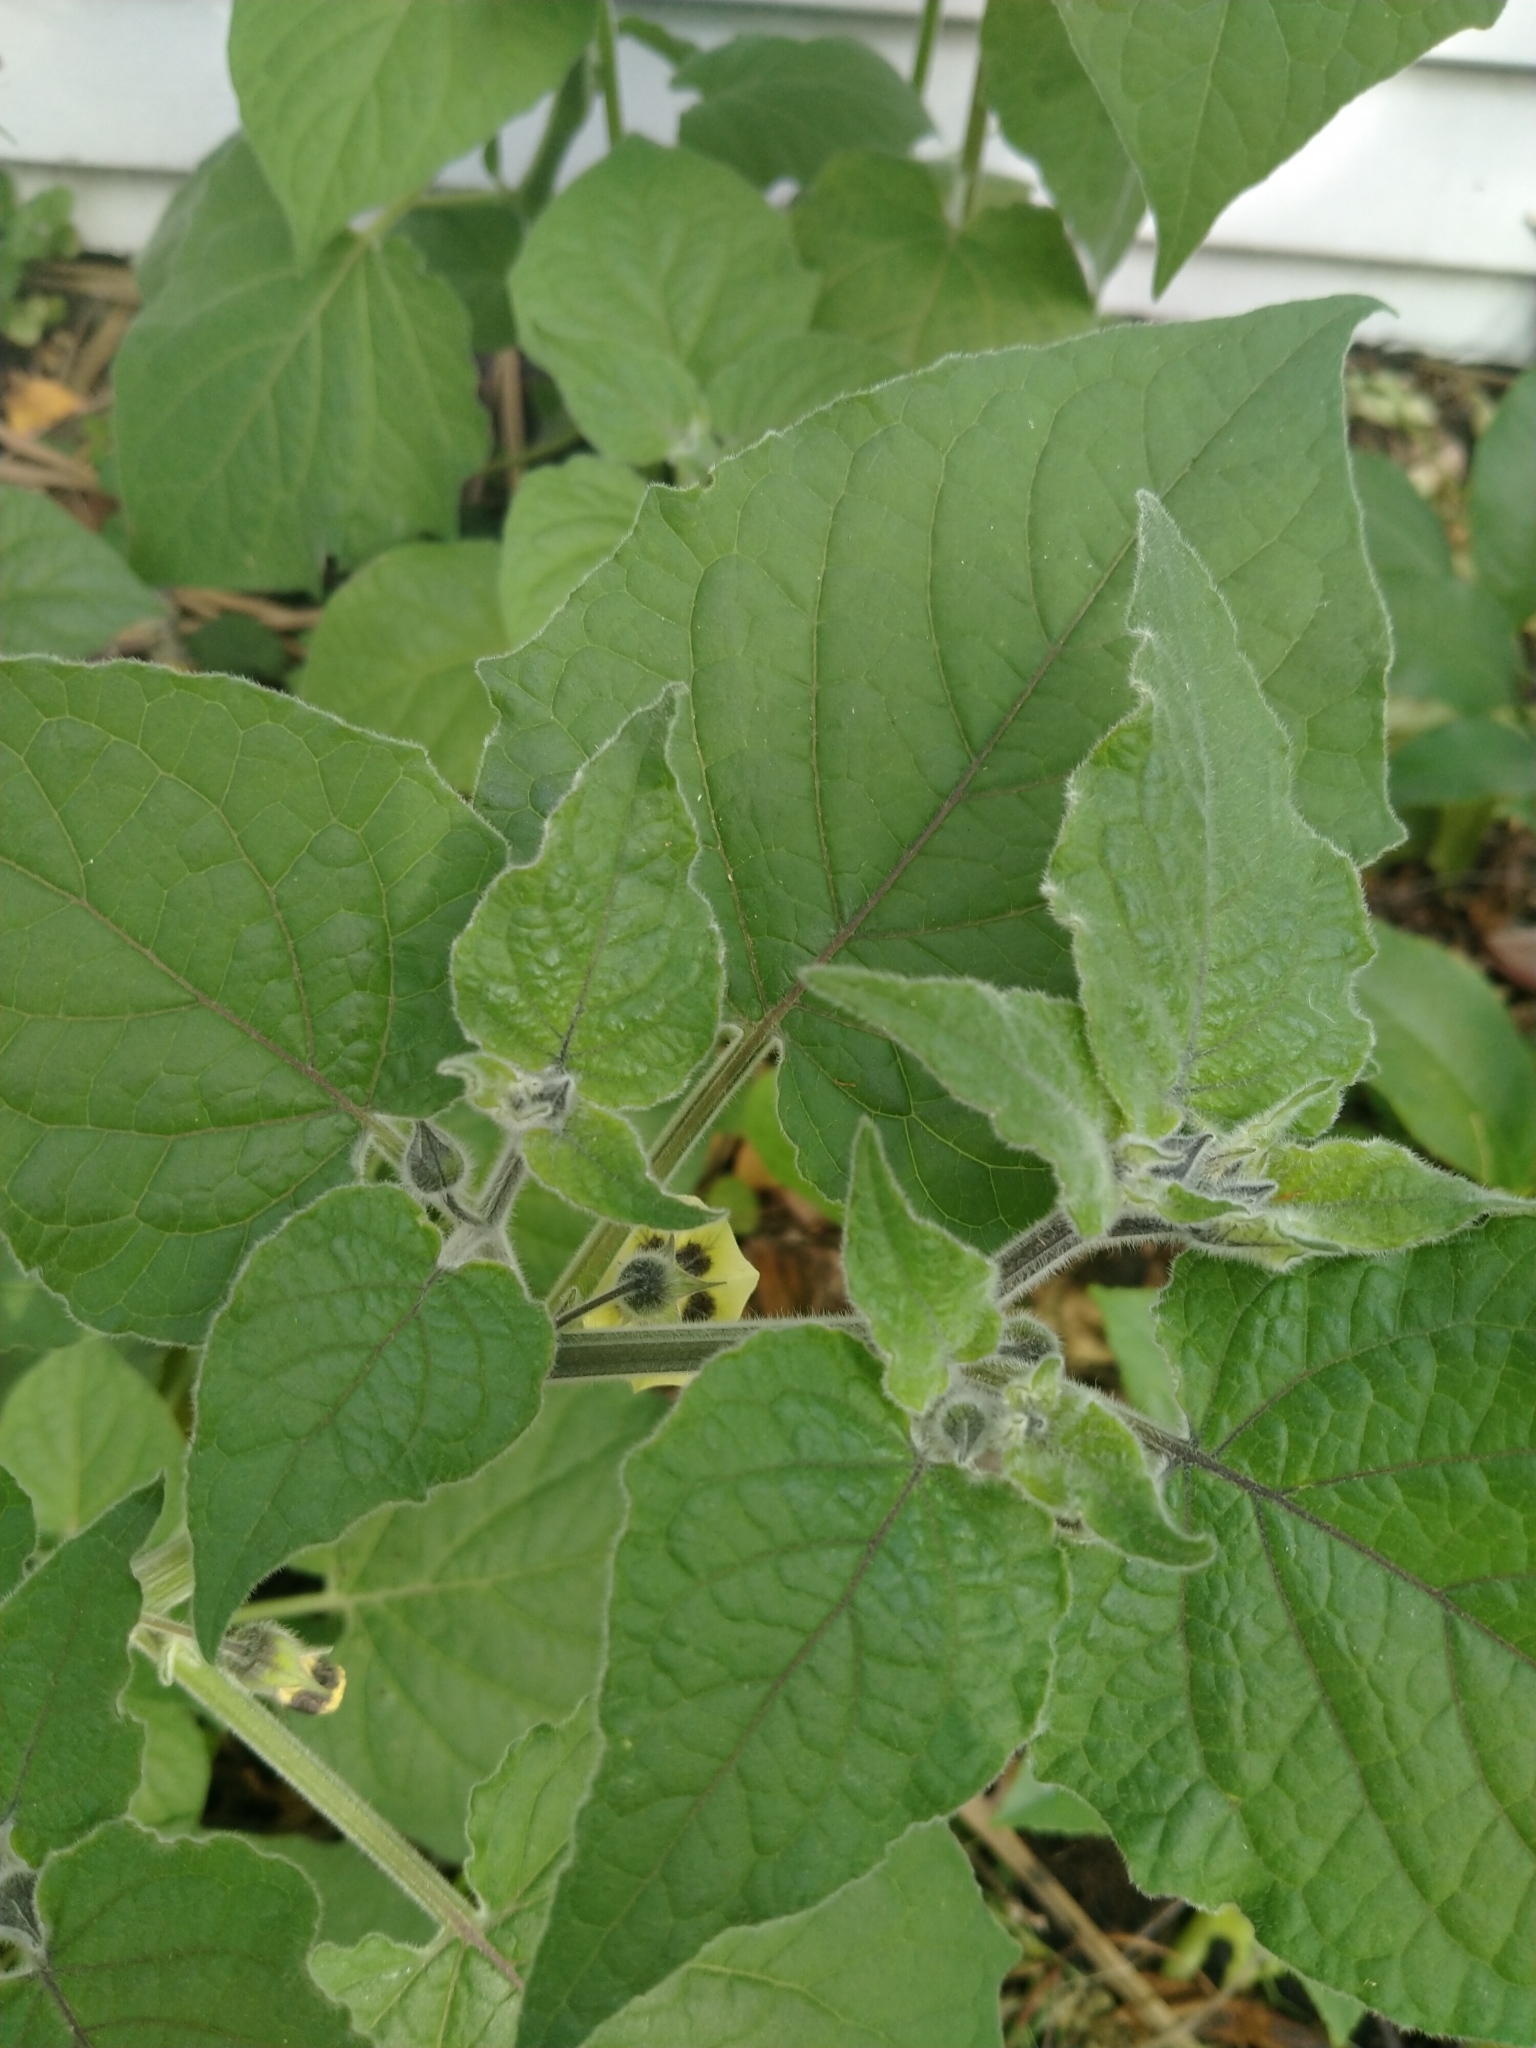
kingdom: Plantae
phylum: Tracheophyta
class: Magnoliopsida
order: Solanales
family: Solanaceae
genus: Physalis
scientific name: Physalis peruviana
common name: Cape-gooseberry
